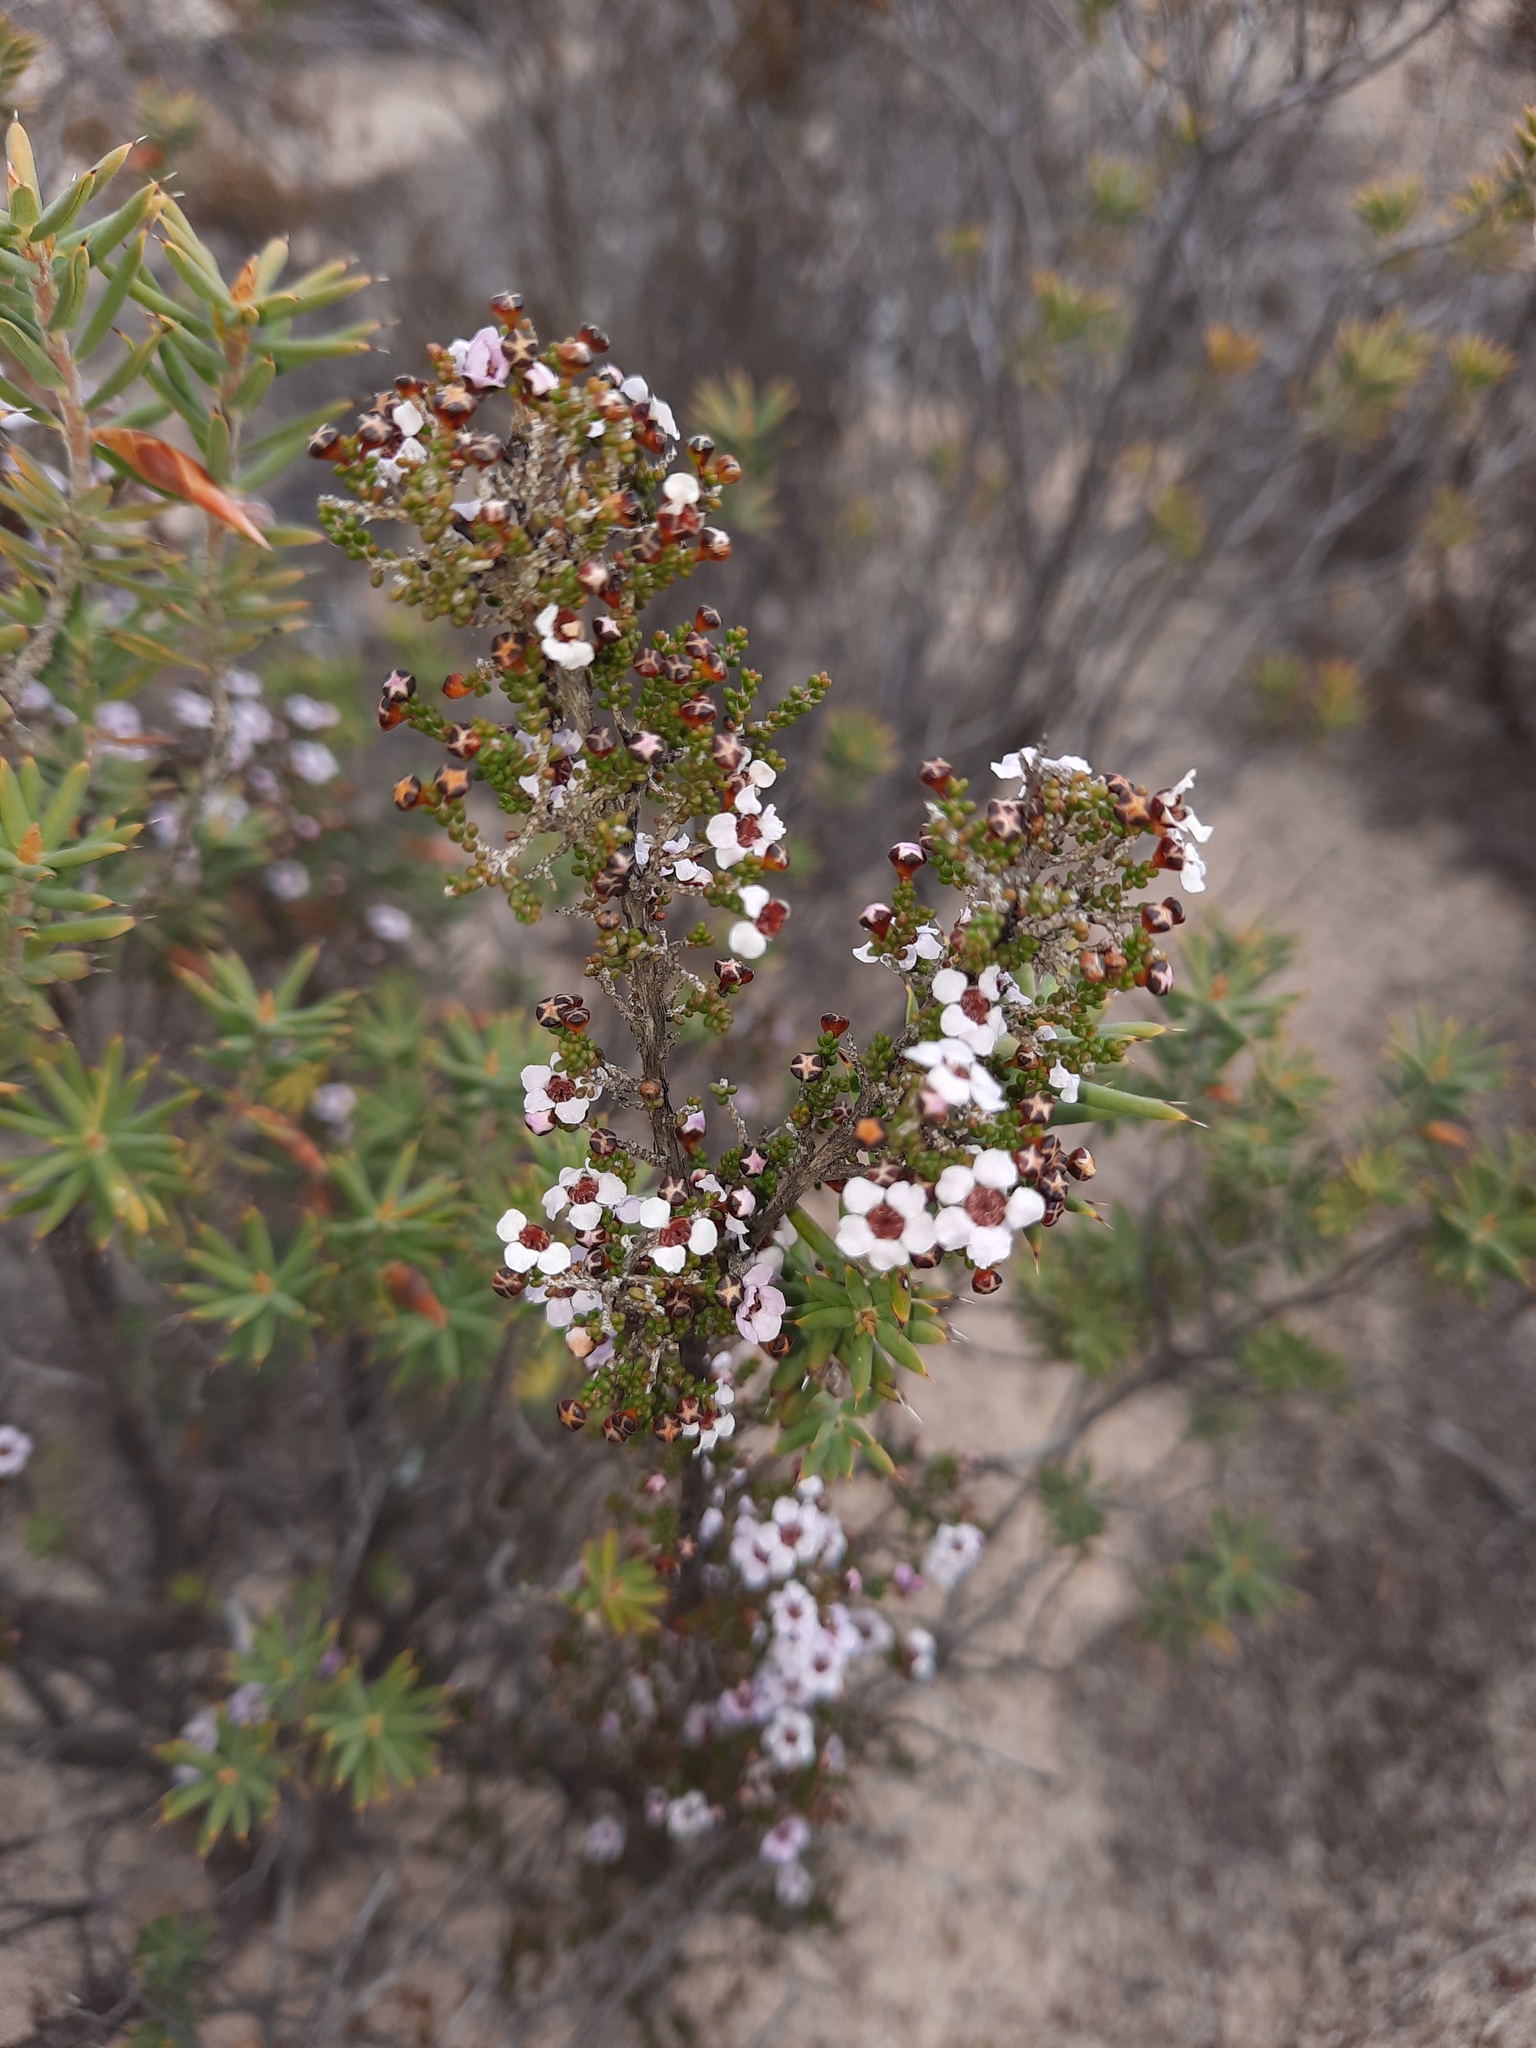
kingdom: Plantae
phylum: Tracheophyta
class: Magnoliopsida
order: Myrtales
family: Myrtaceae
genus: Rinzia
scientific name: Rinzia orientalis
